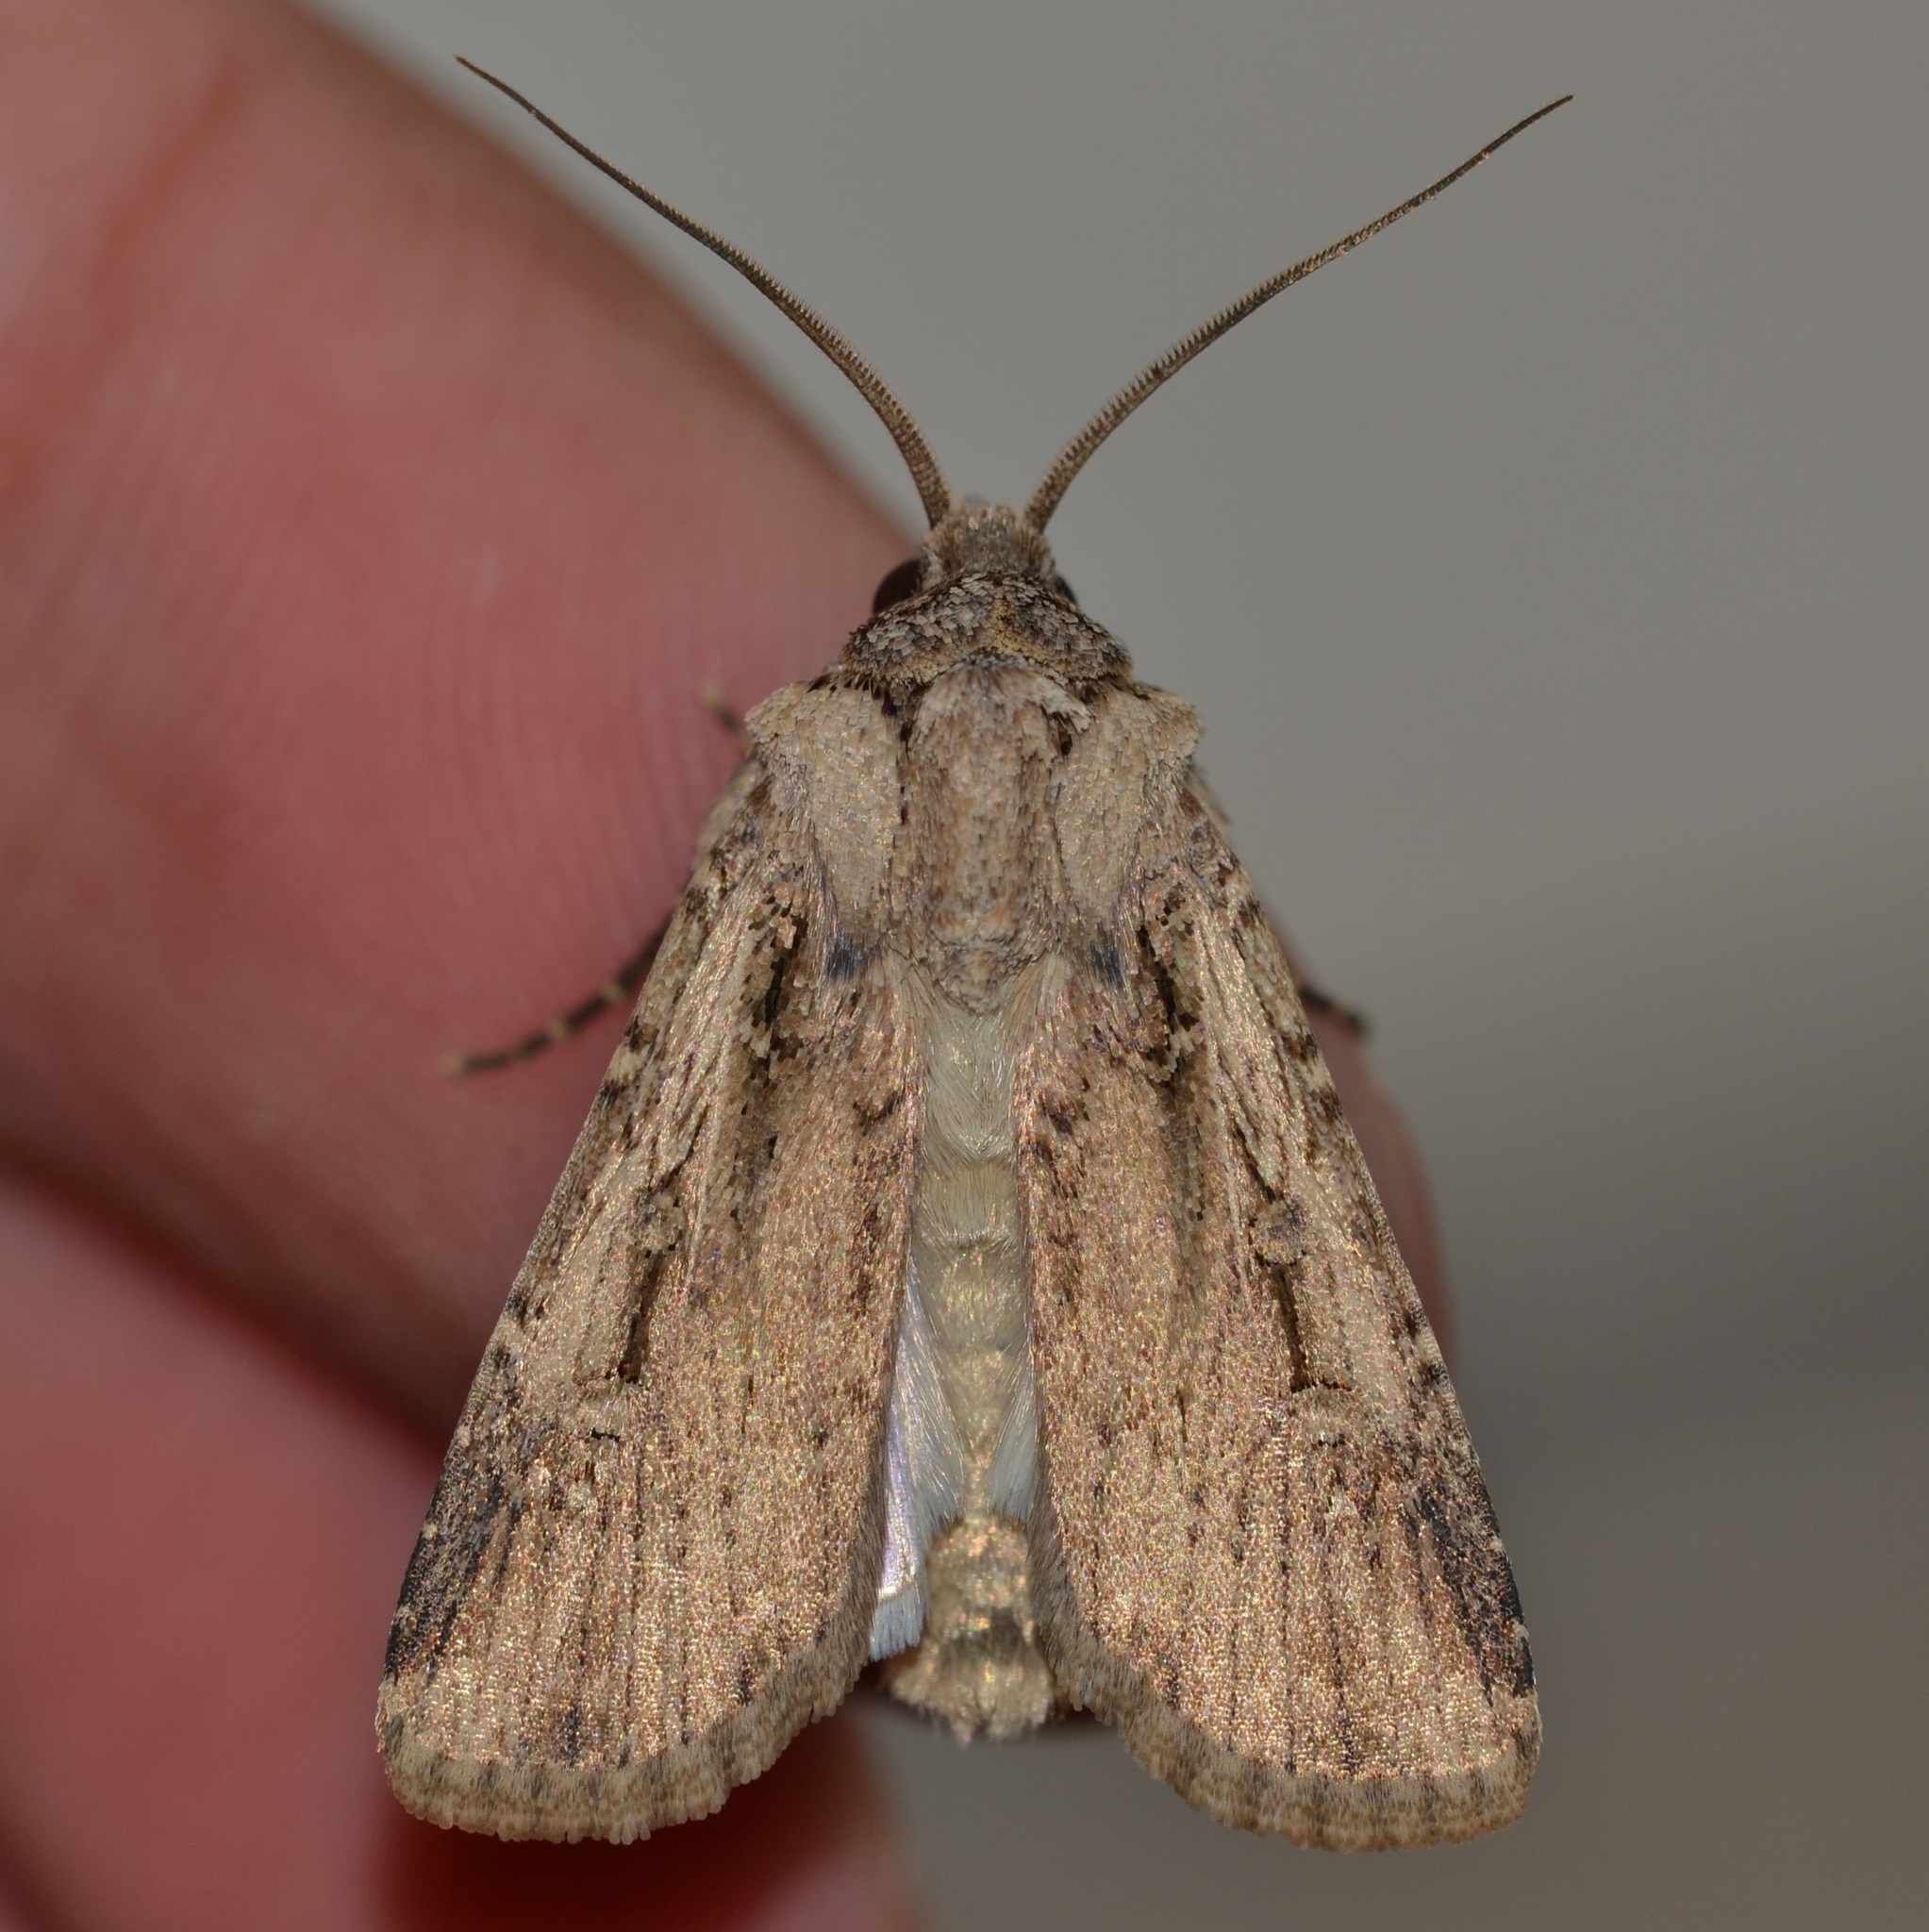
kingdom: Animalia
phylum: Arthropoda
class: Insecta
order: Lepidoptera
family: Noctuidae
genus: Feltia
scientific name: Feltia subterranea
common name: Granulate cutworm
